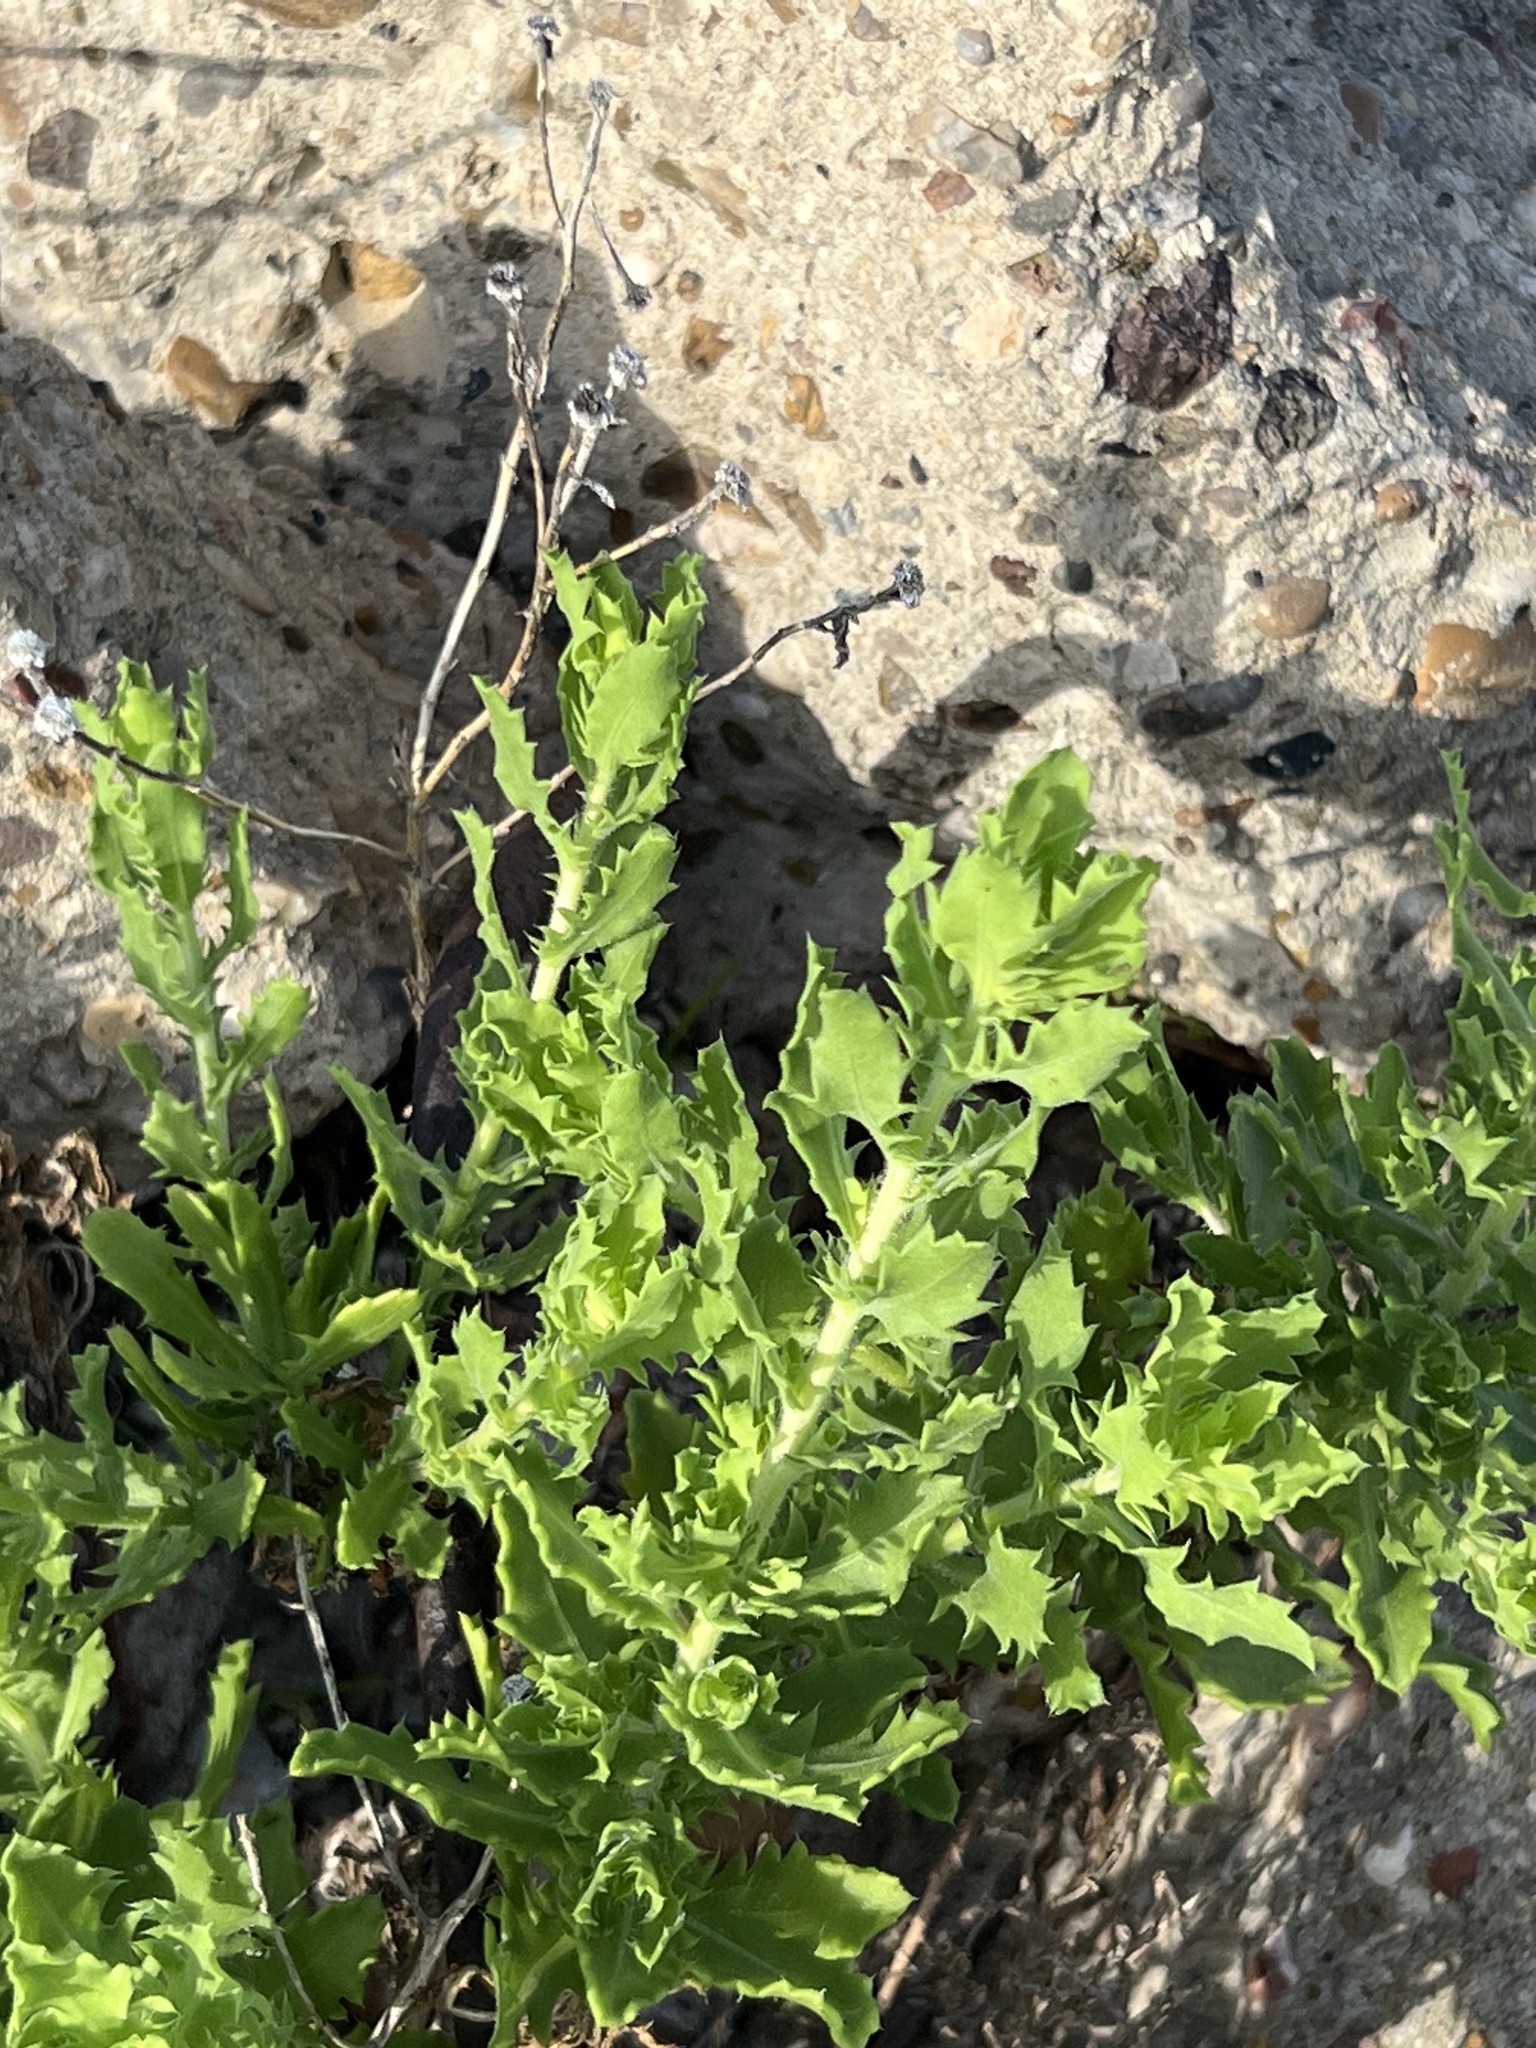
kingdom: Plantae
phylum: Tracheophyta
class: Magnoliopsida
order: Asterales
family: Asteraceae
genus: Rayjacksonia
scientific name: Rayjacksonia phyllocephala
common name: Gulf coast camphor daisy
